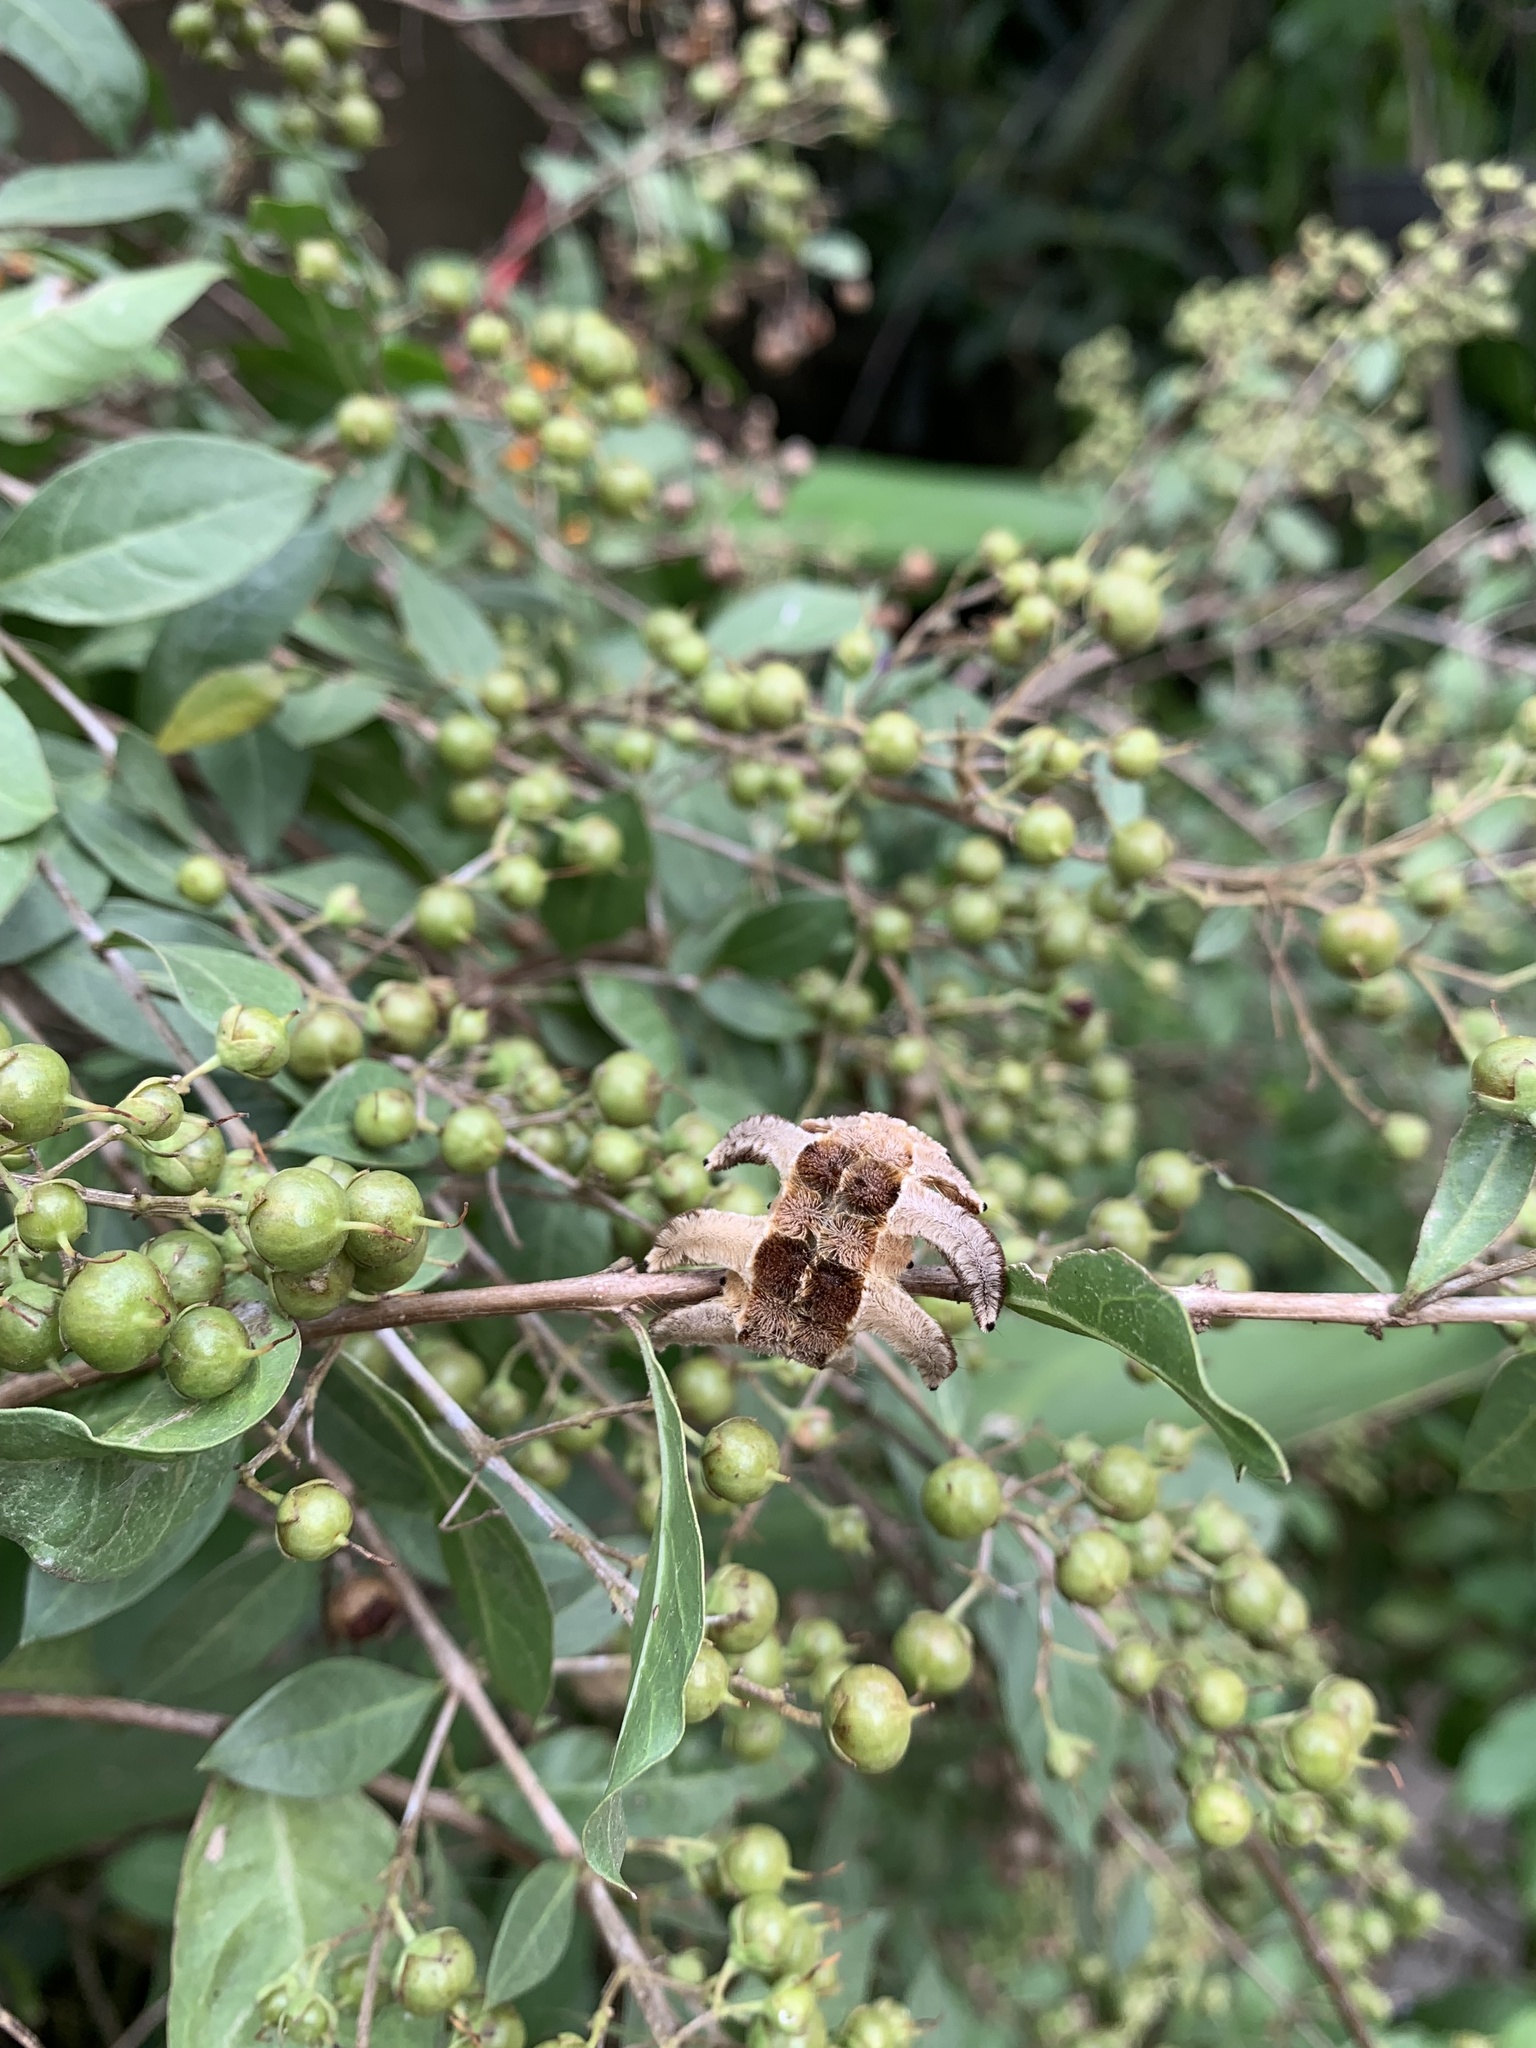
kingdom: Animalia
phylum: Arthropoda
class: Insecta
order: Lepidoptera
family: Limacodidae
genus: Phobetron
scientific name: Phobetron hipparchia
